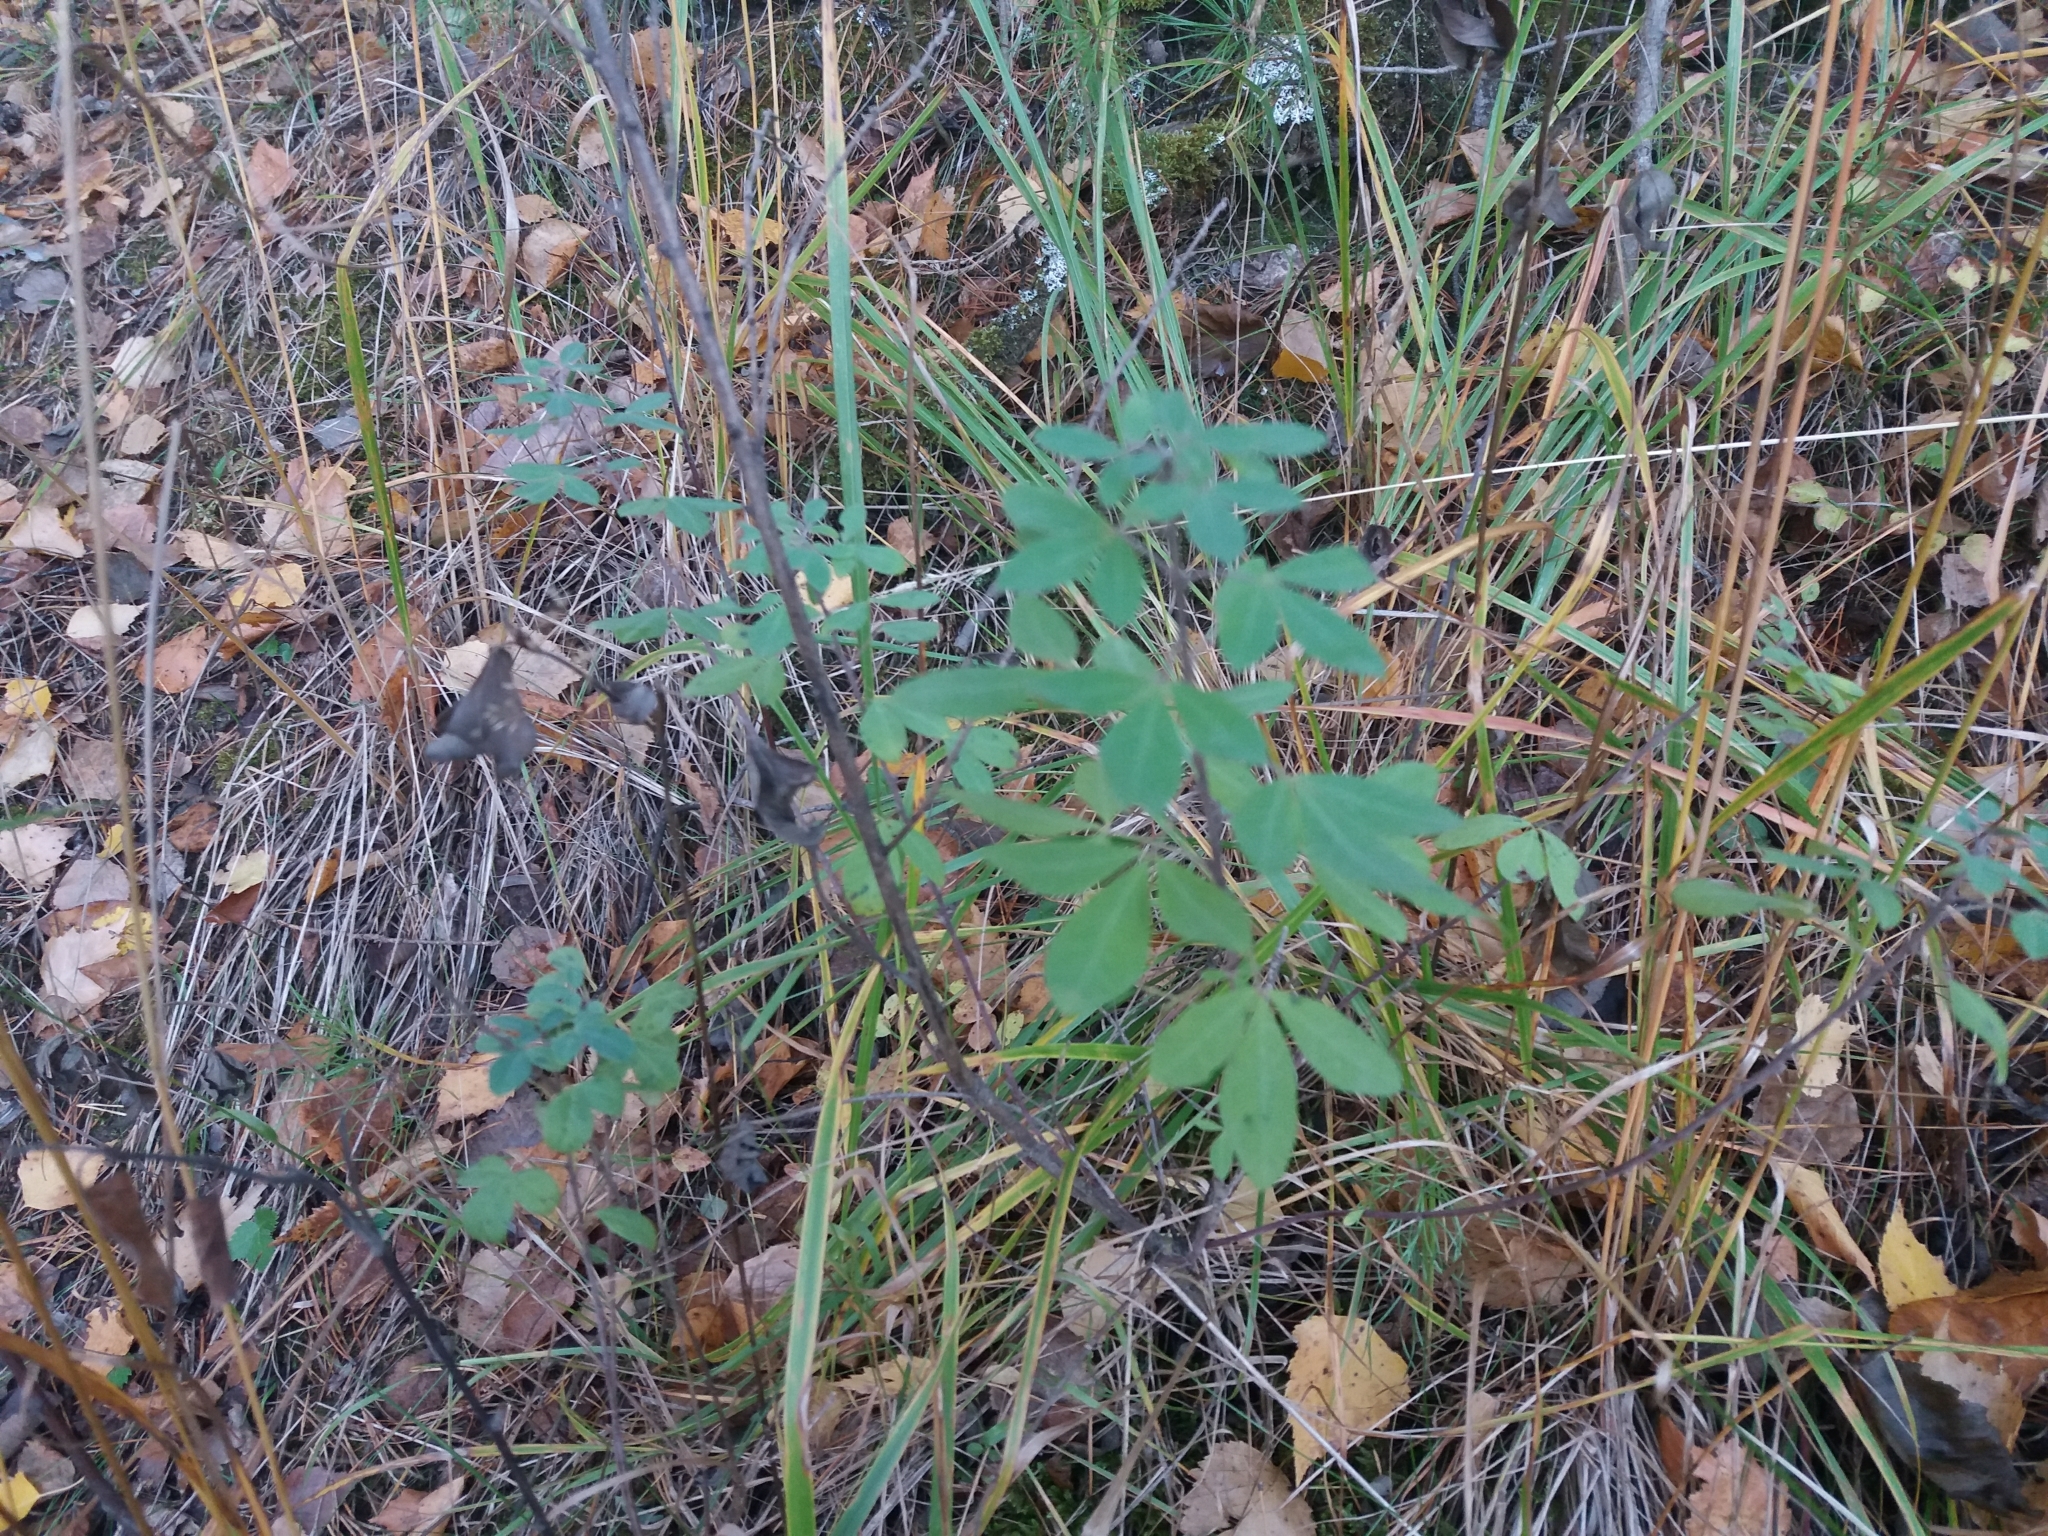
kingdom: Plantae
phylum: Tracheophyta
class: Magnoliopsida
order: Fabales
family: Fabaceae
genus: Chamaecytisus
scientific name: Chamaecytisus ruthenicus
